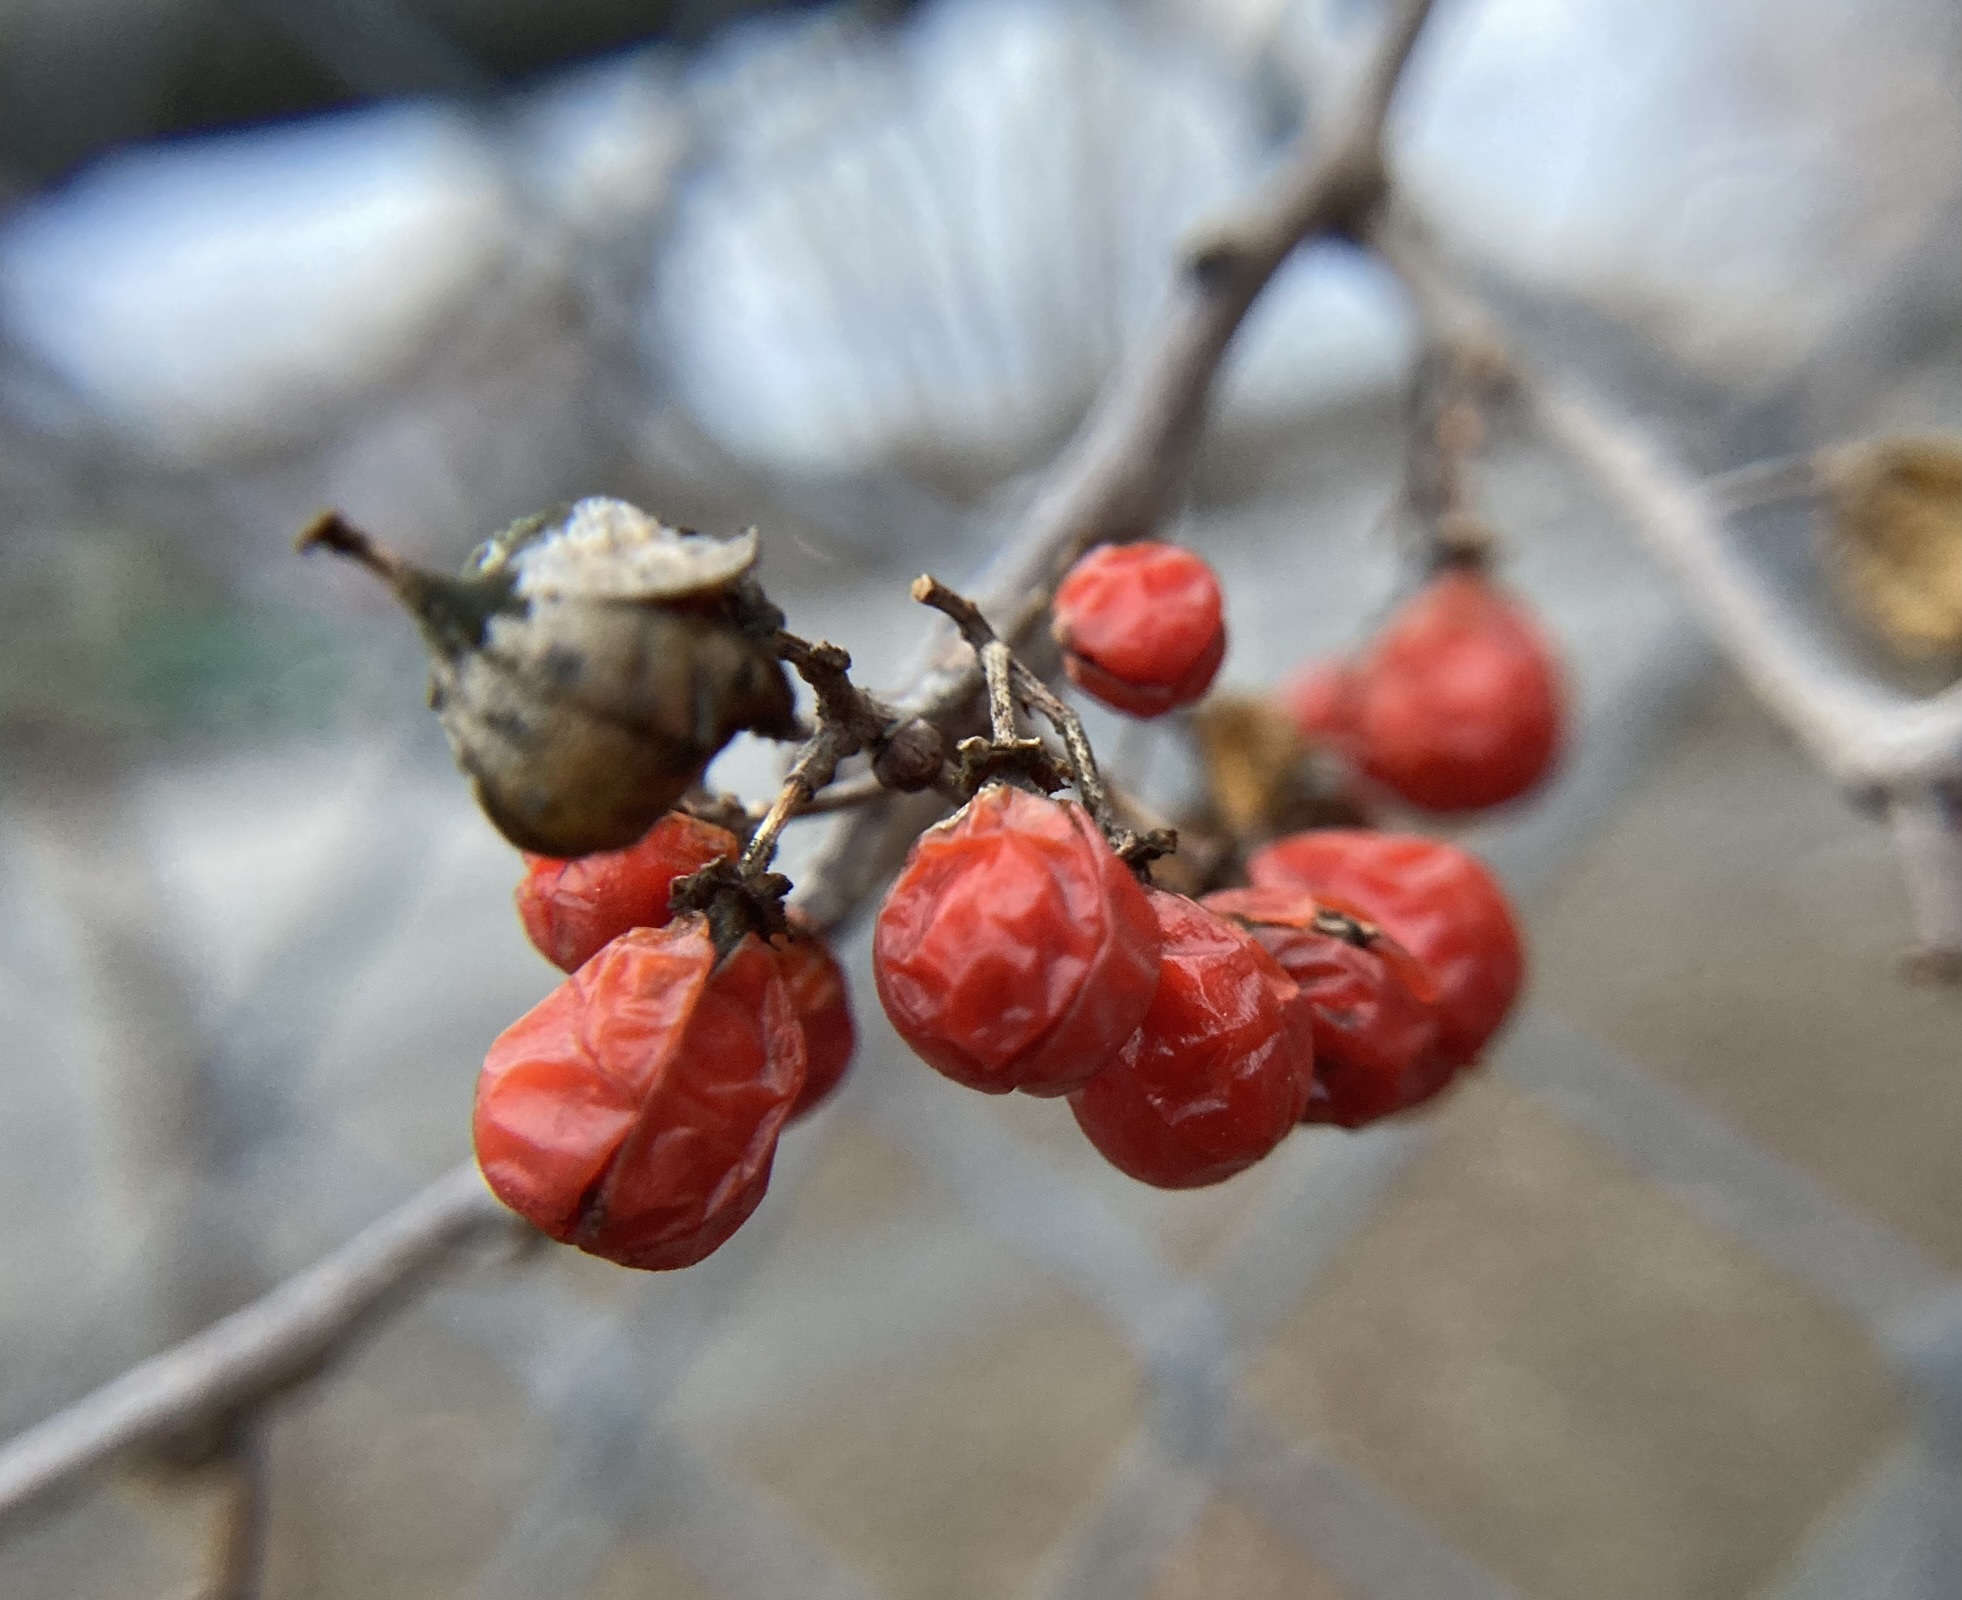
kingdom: Plantae
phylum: Tracheophyta
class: Magnoliopsida
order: Celastrales
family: Celastraceae
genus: Celastrus
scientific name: Celastrus orbiculatus
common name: Oriental bittersweet
